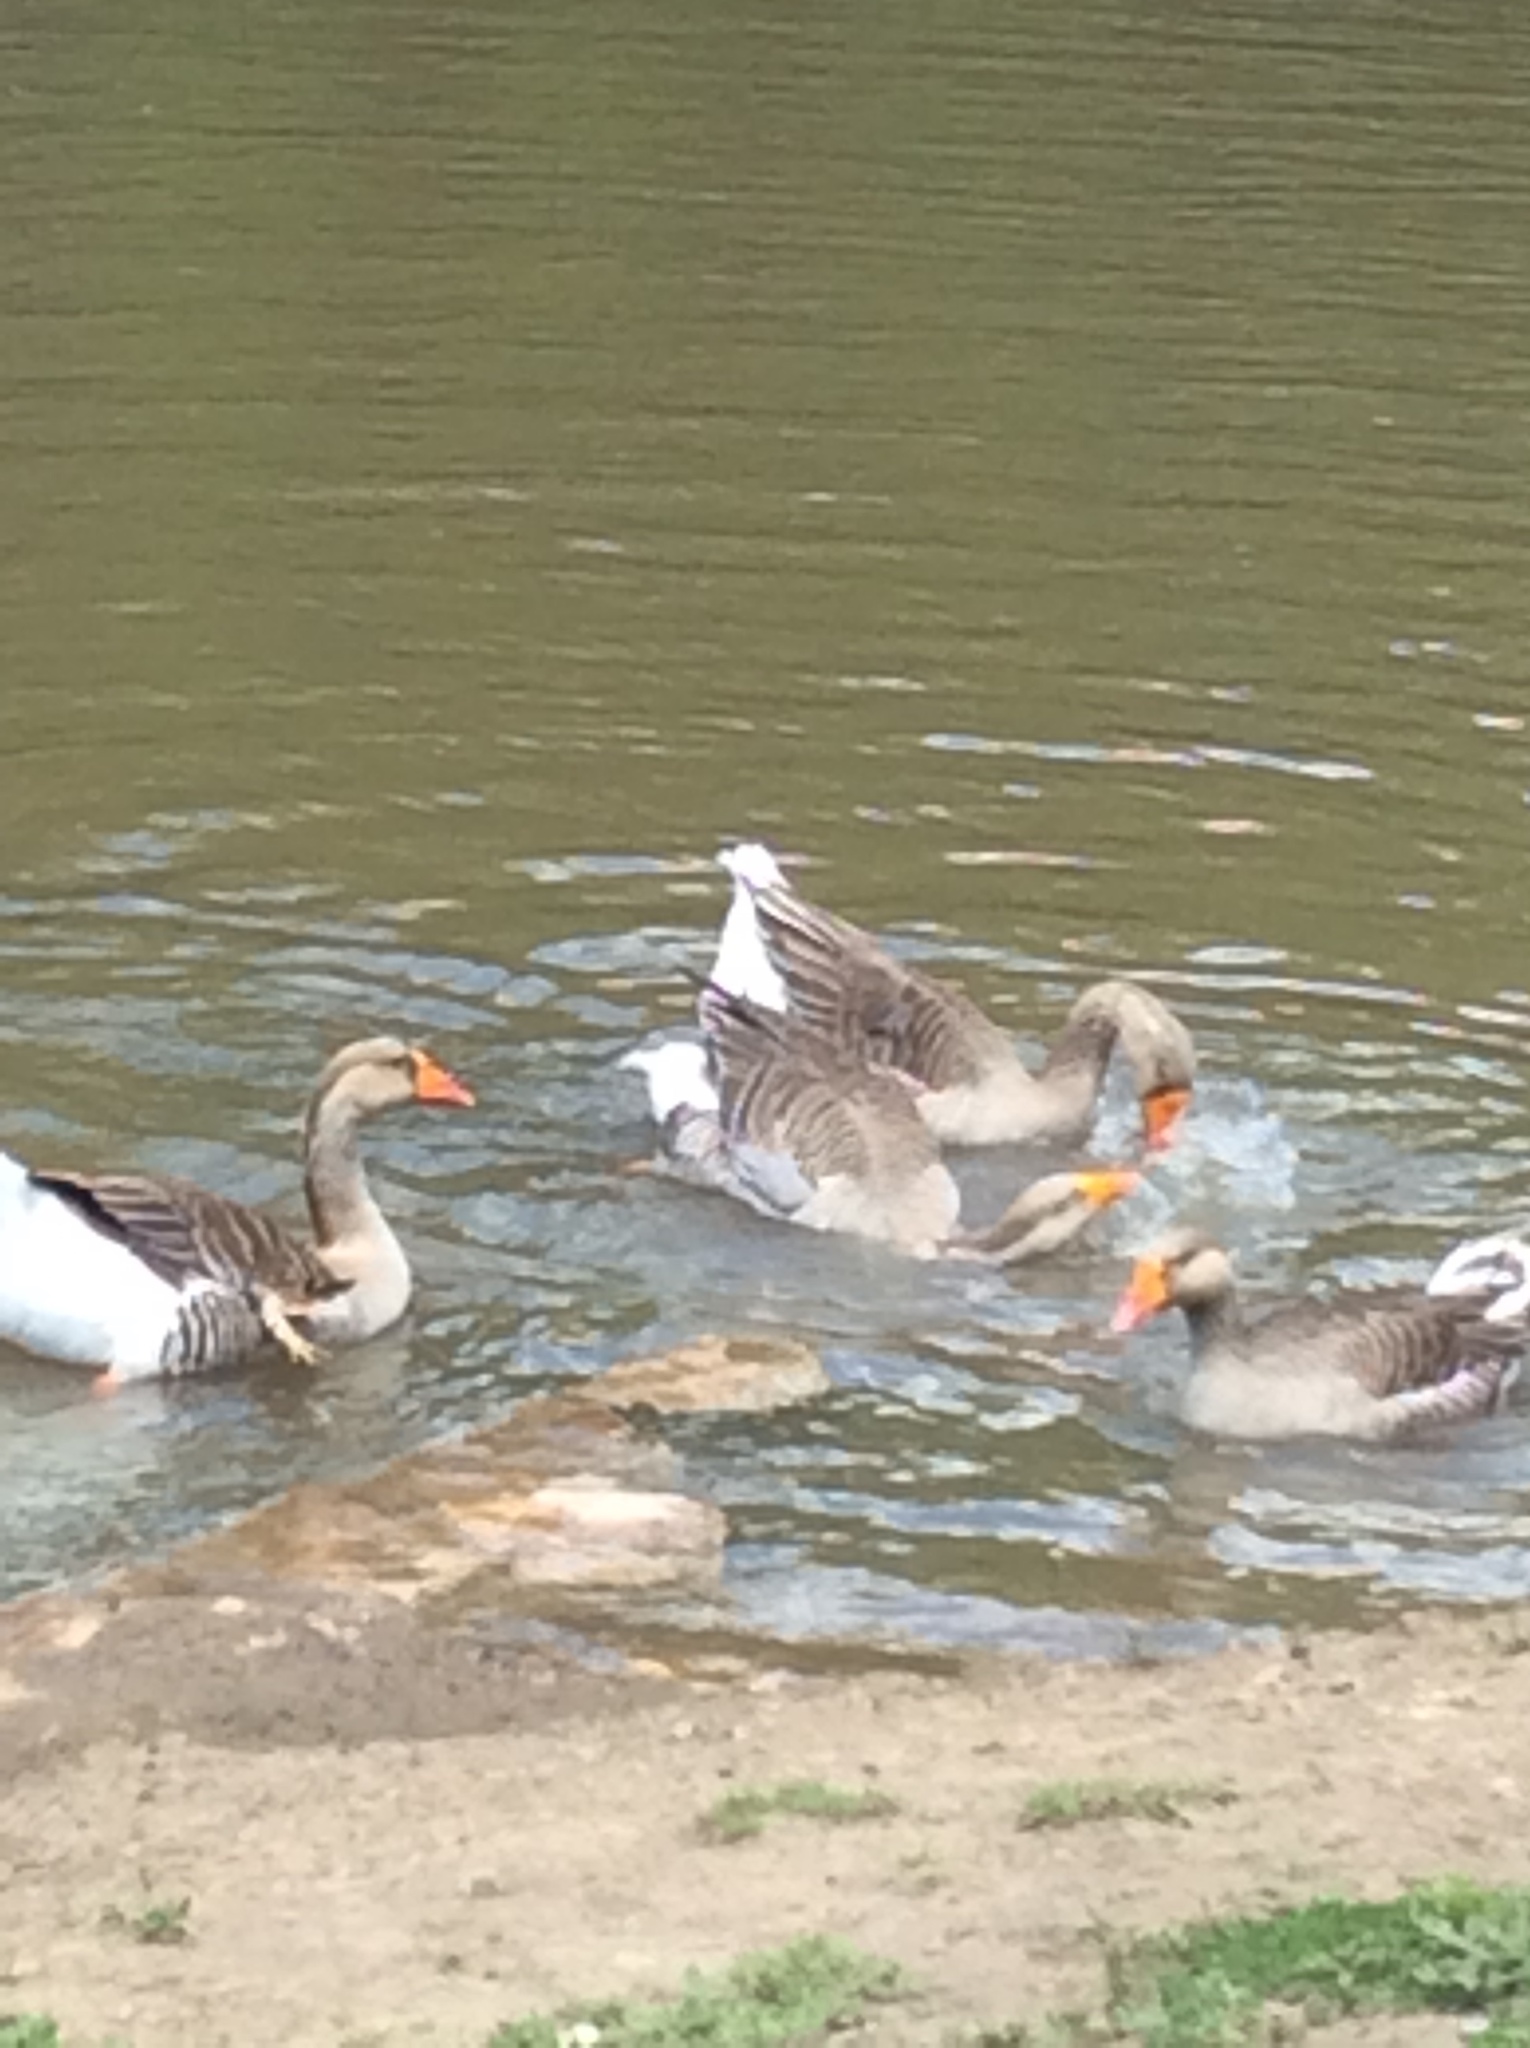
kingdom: Animalia
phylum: Chordata
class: Aves
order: Anseriformes
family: Anatidae
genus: Anser
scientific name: Anser
